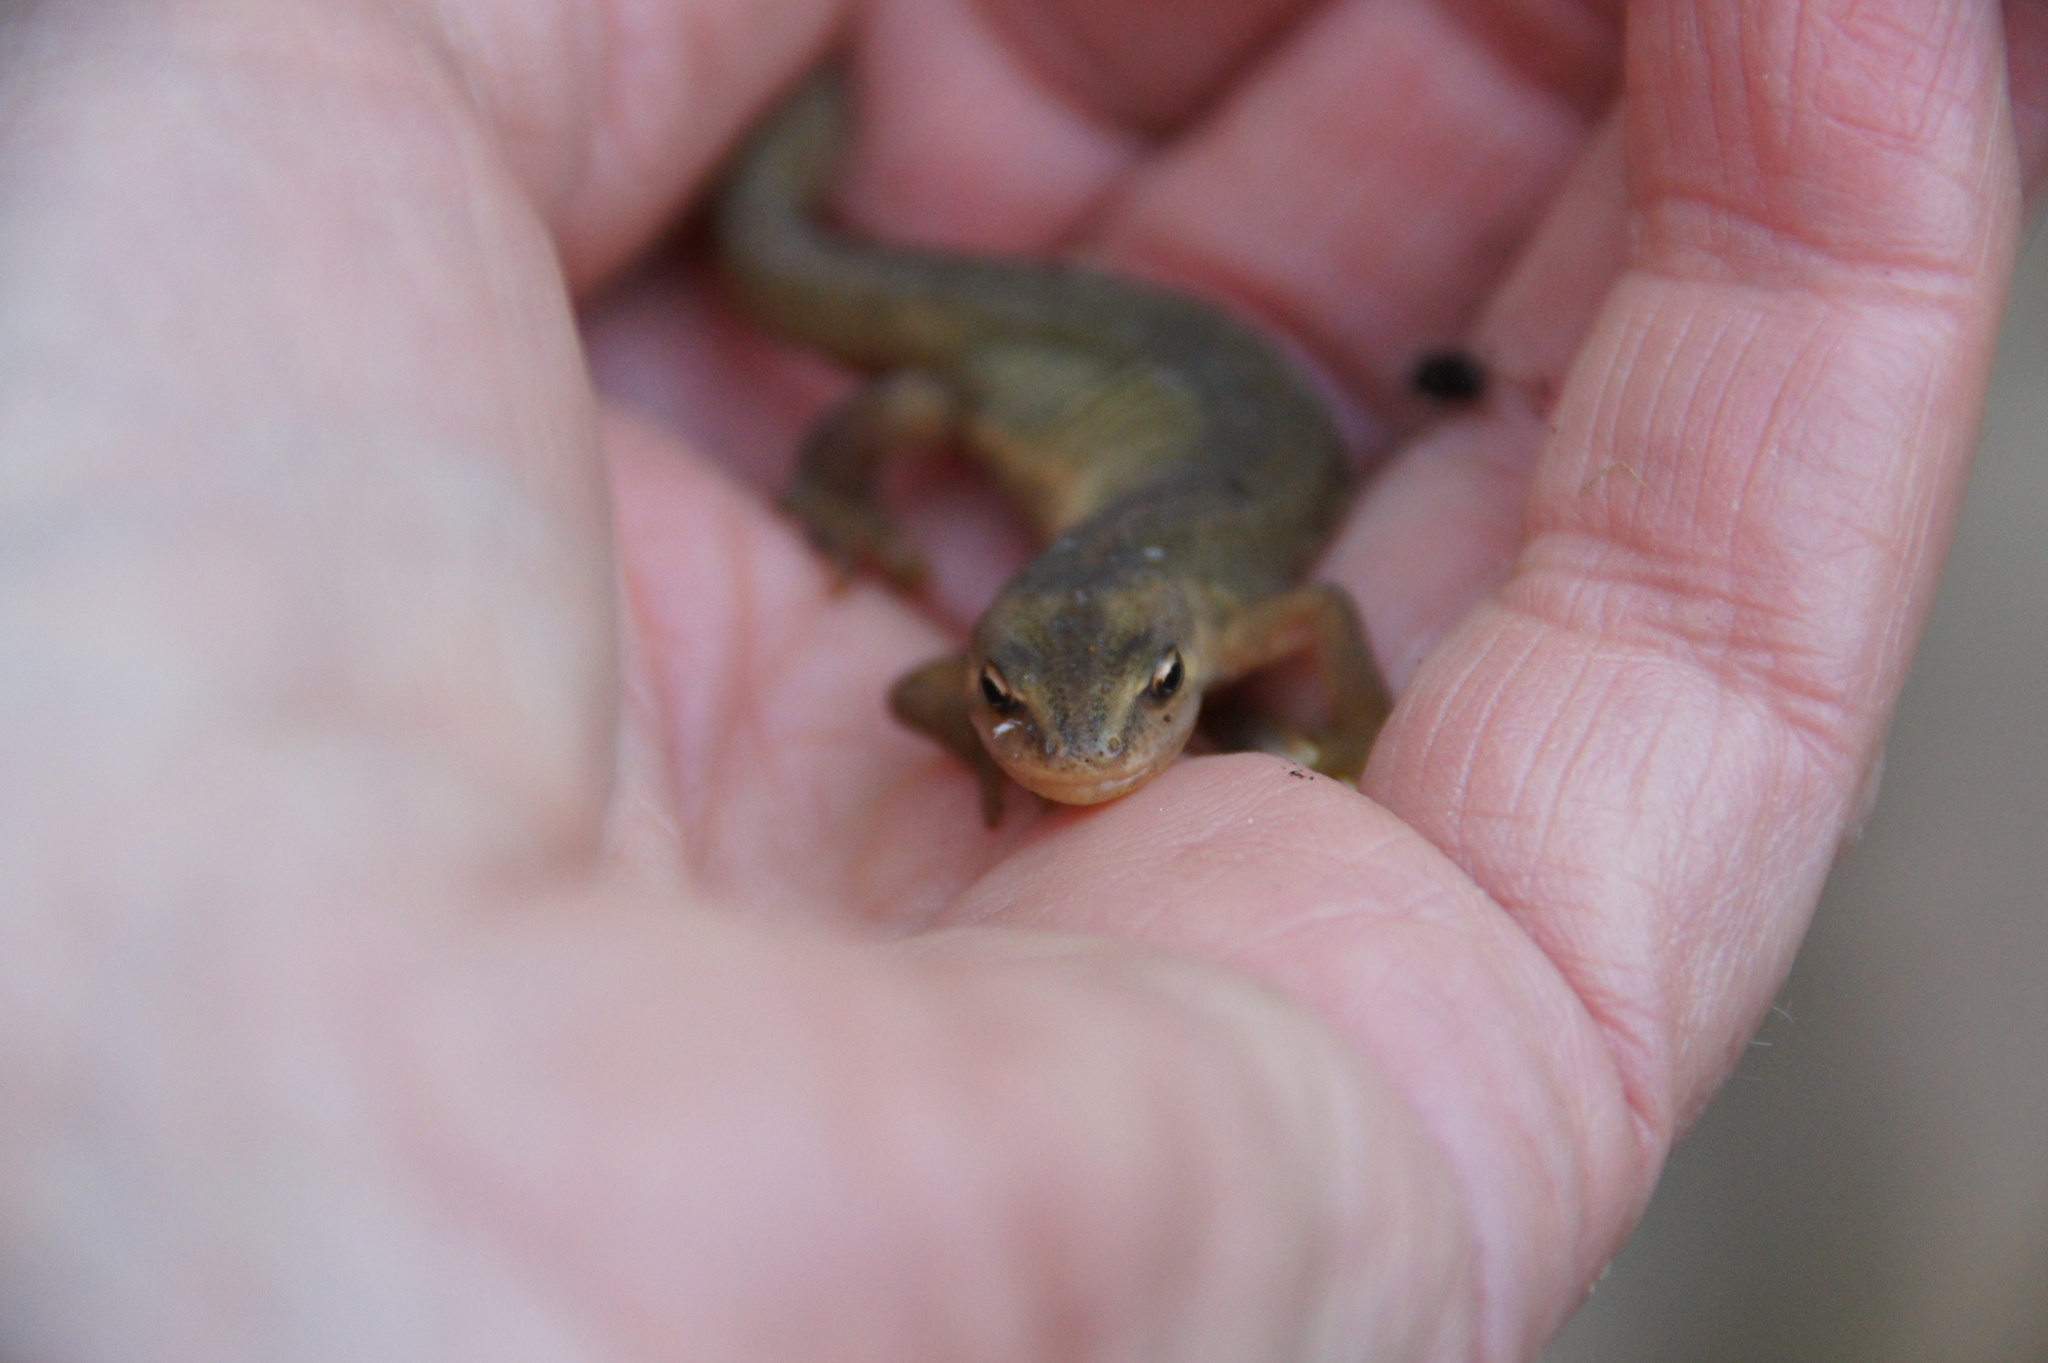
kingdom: Animalia
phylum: Chordata
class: Amphibia
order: Caudata
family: Salamandridae
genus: Lissotriton
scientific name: Lissotriton vulgaris
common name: Smooth newt
